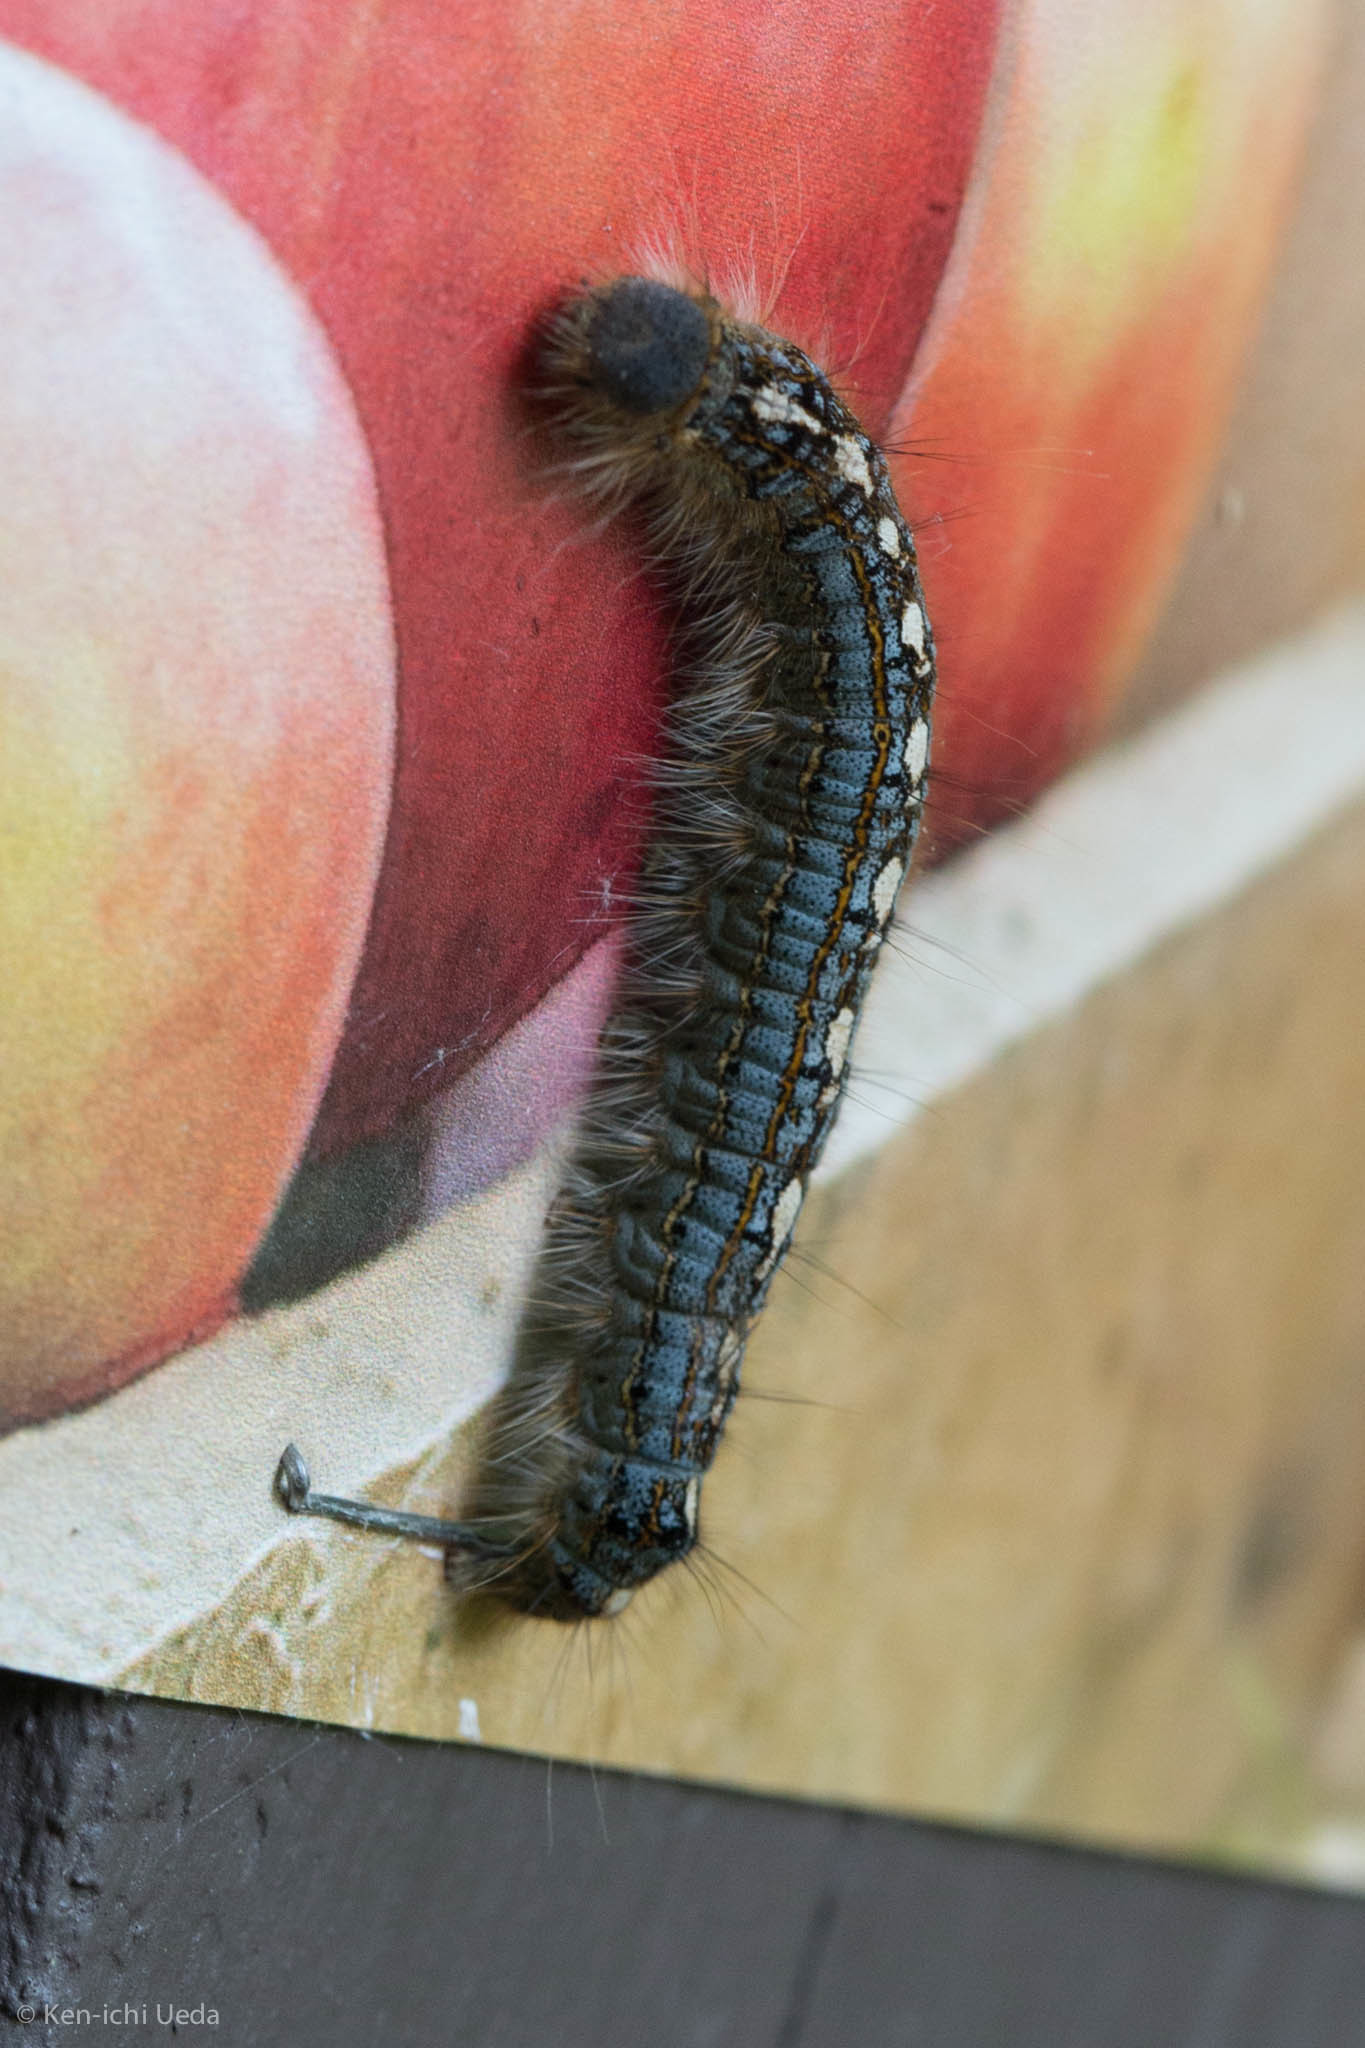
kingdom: Animalia
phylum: Arthropoda
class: Insecta
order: Lepidoptera
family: Lasiocampidae
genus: Malacosoma
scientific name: Malacosoma disstria
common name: Forest tent caterpillar
